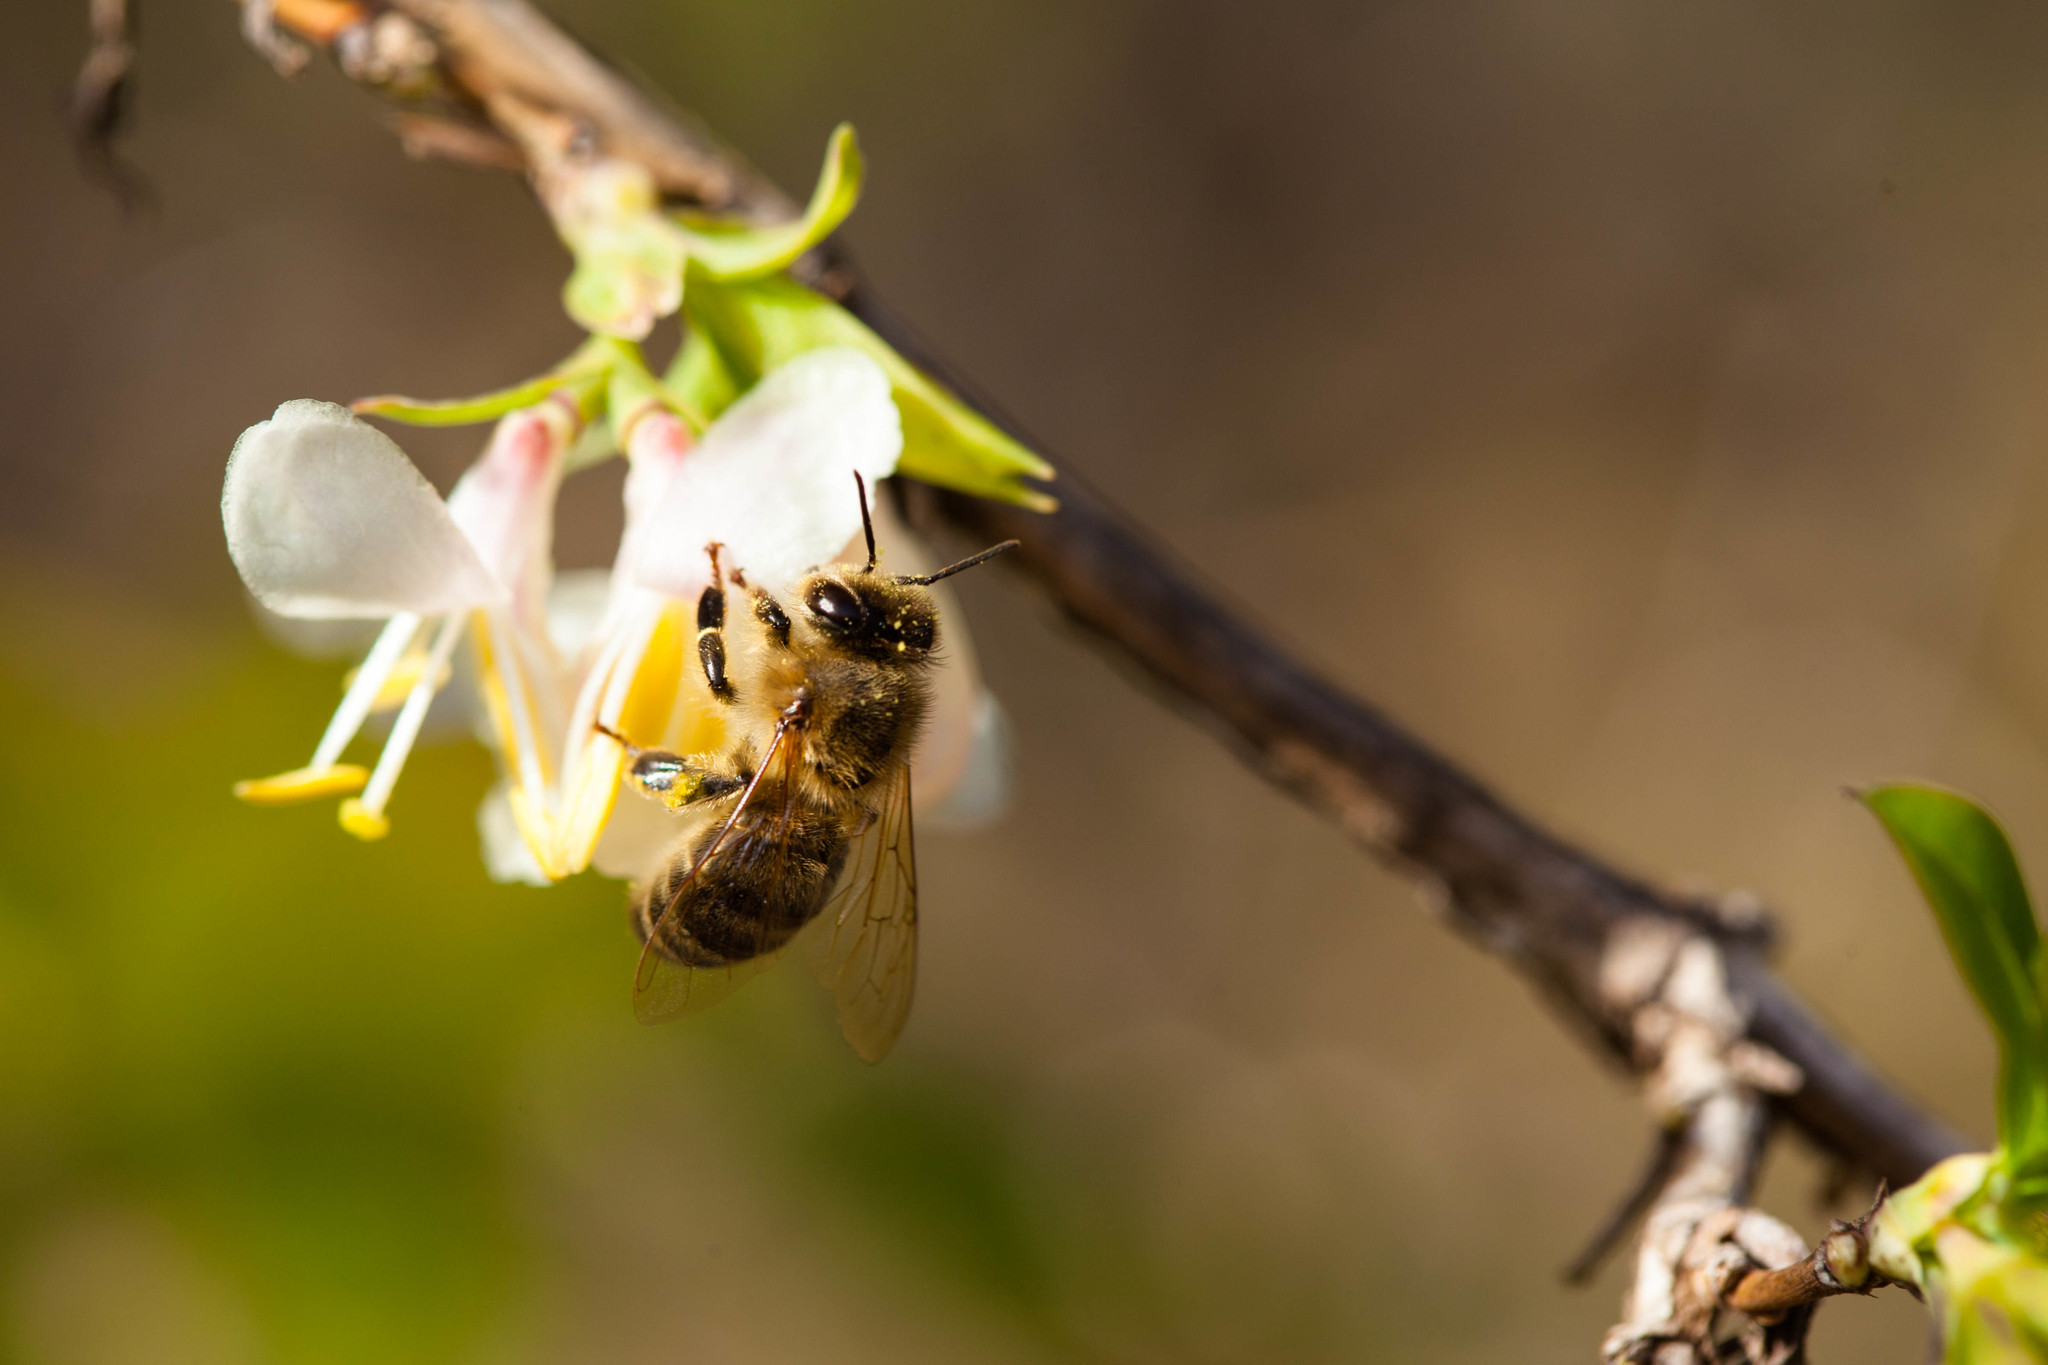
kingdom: Animalia
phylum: Arthropoda
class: Insecta
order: Hymenoptera
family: Apidae
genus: Apis
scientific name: Apis mellifera
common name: Honey bee
